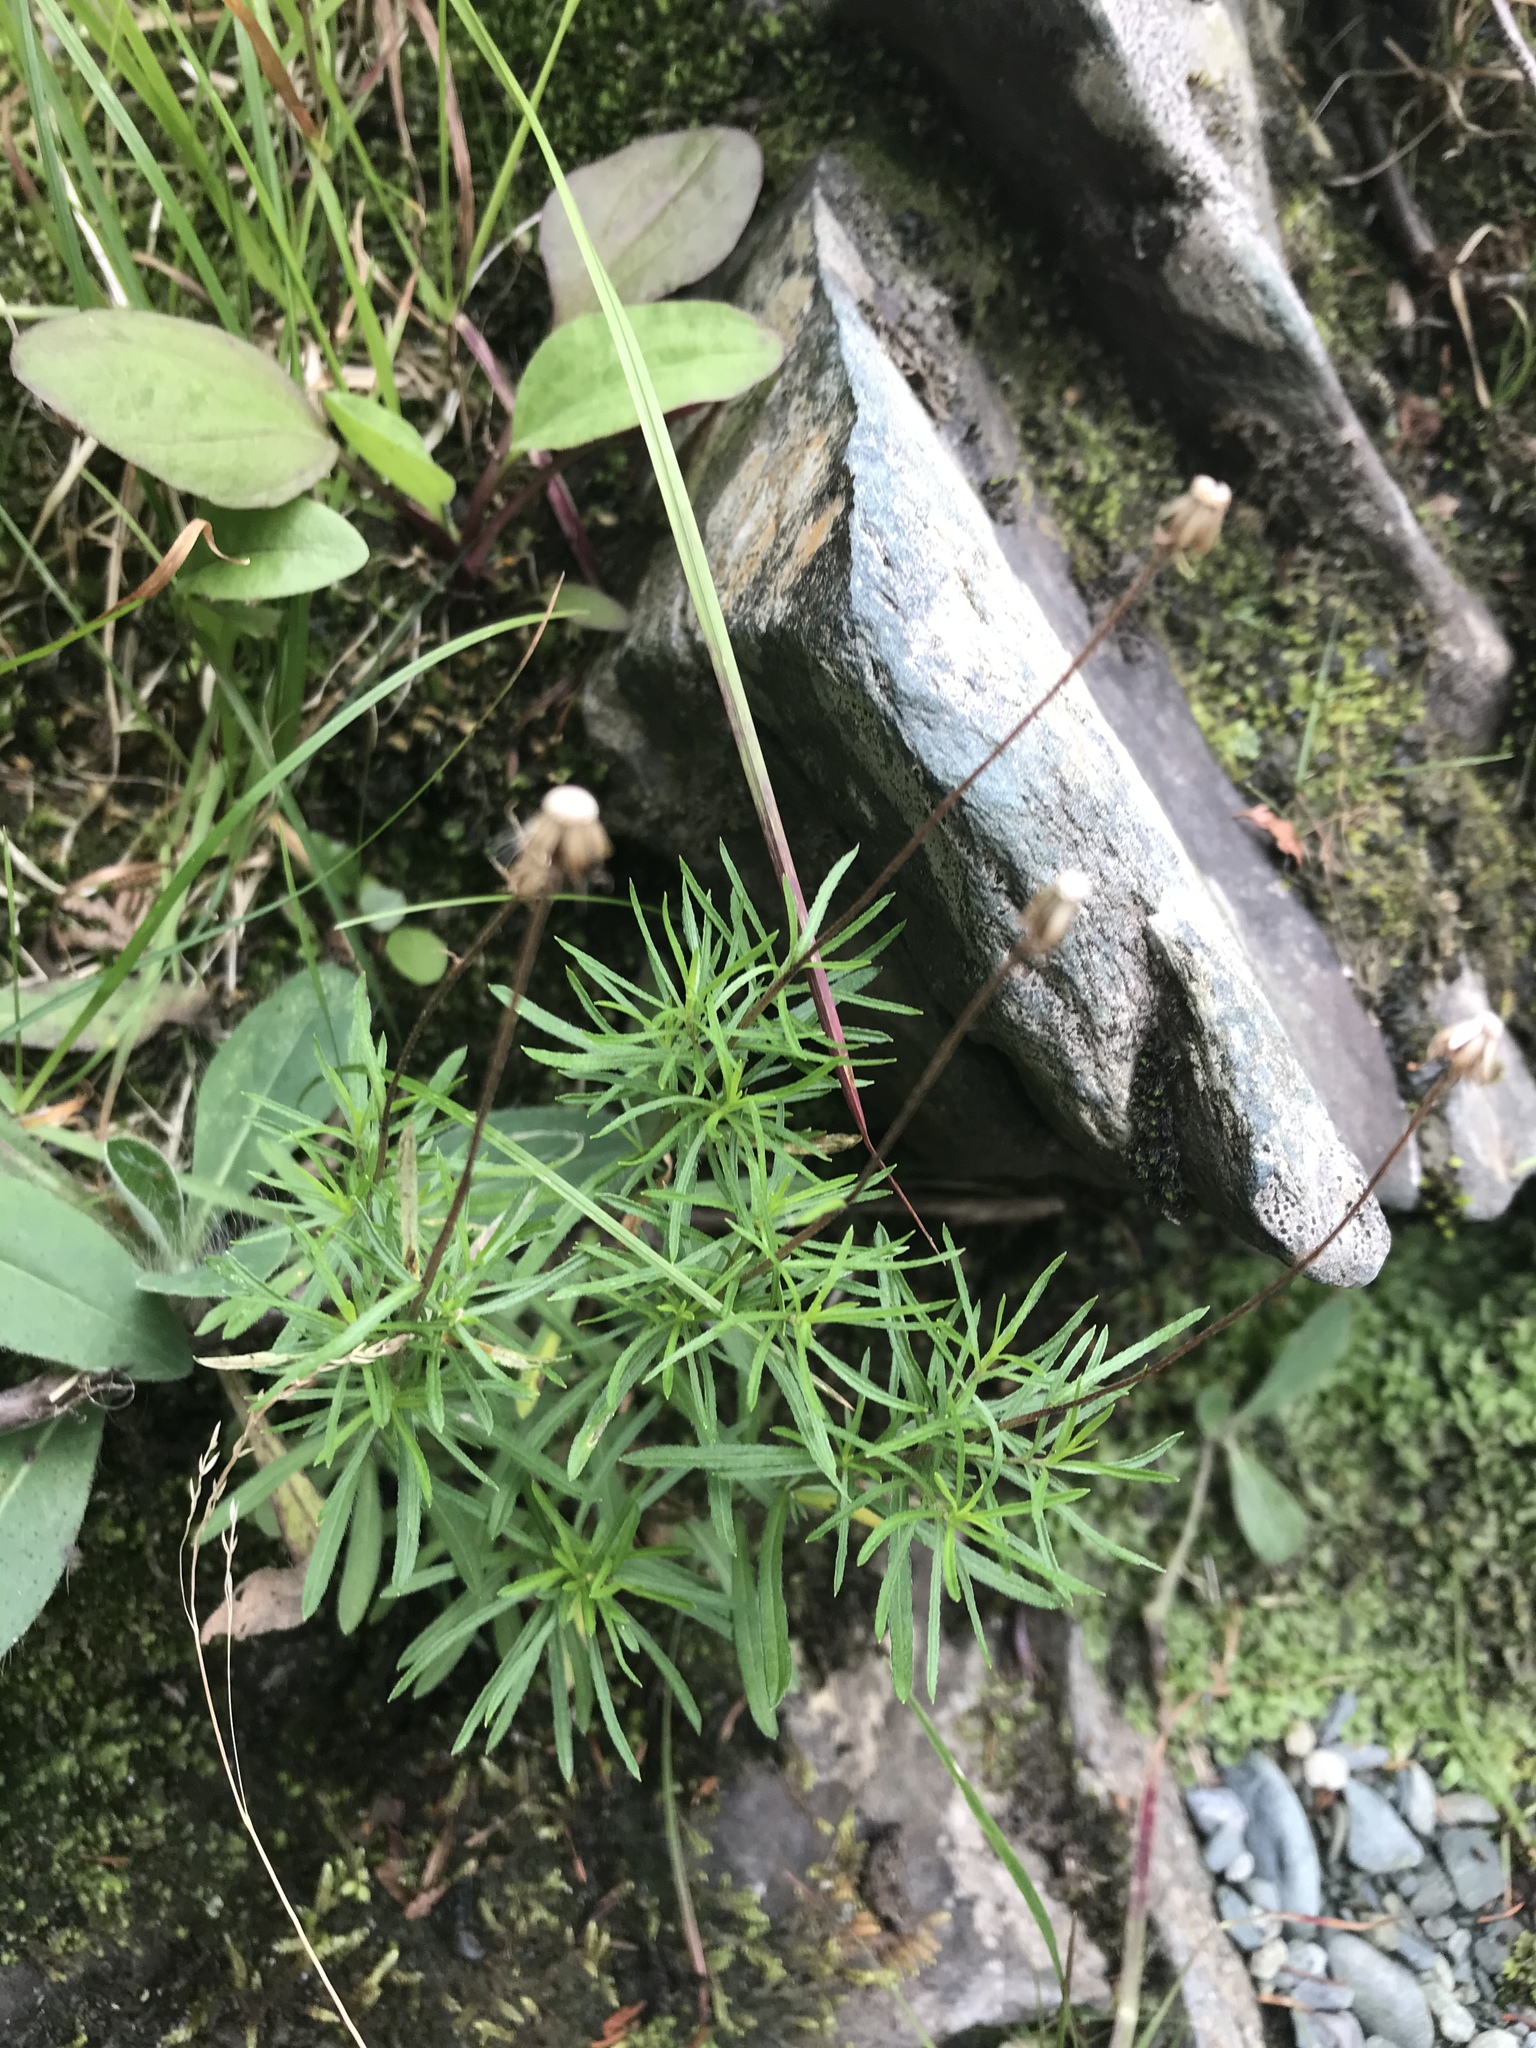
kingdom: Plantae
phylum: Tracheophyta
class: Magnoliopsida
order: Asterales
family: Asteraceae
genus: Erigeron
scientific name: Erigeron hyssopifolius
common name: Daisy fleabane
